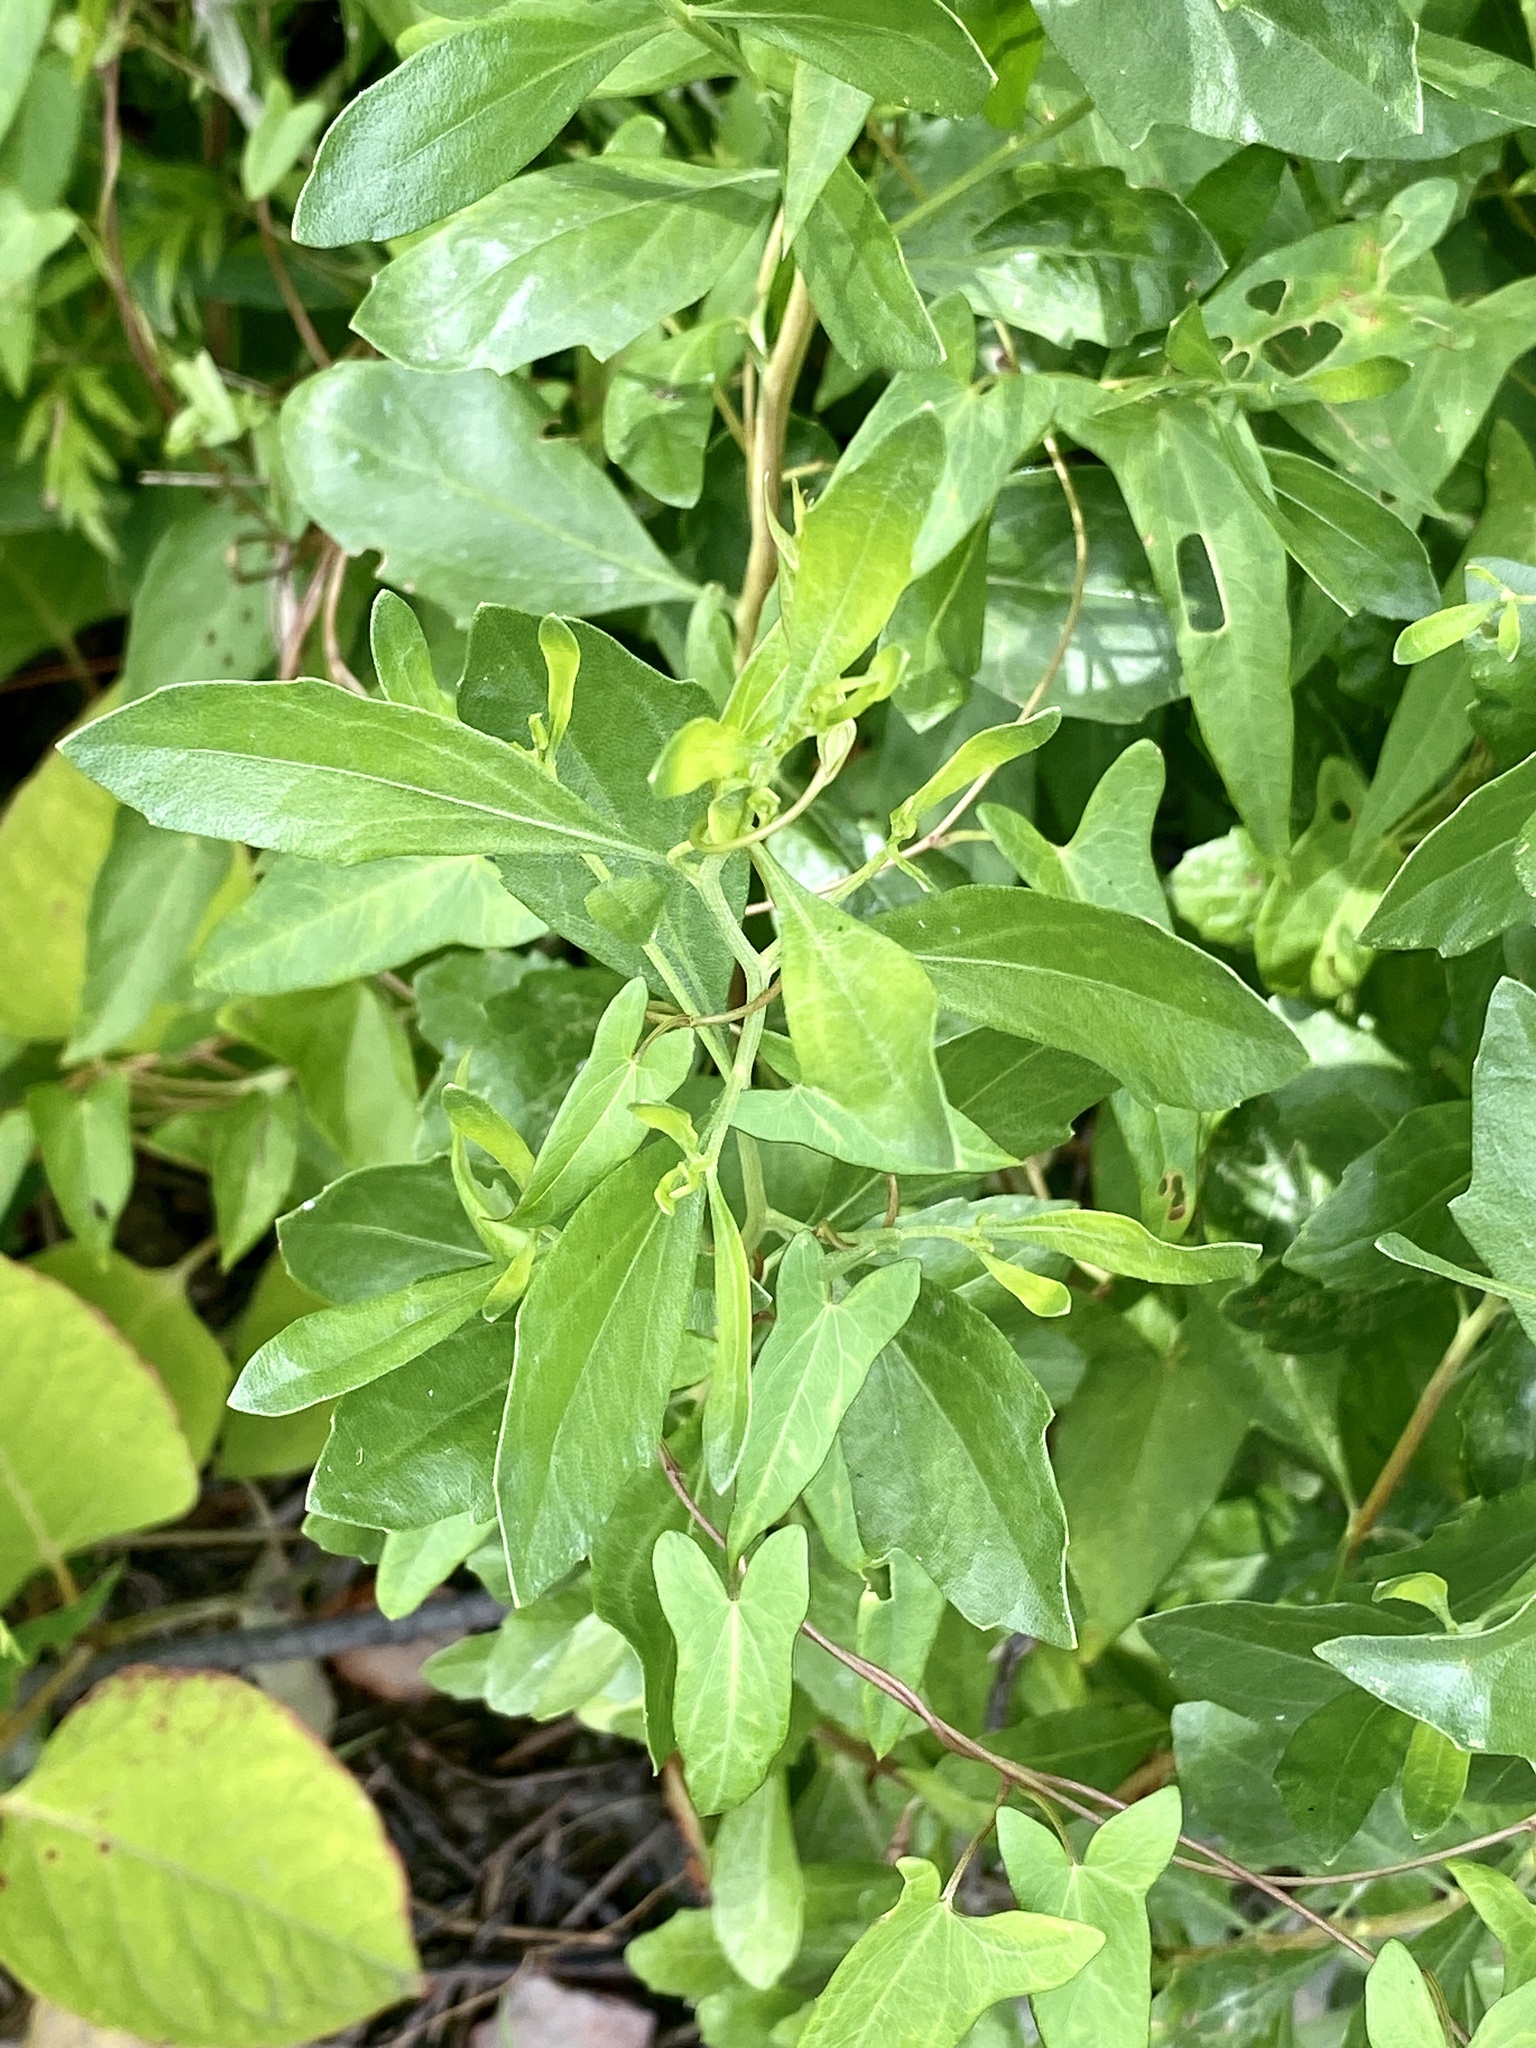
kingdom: Plantae
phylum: Tracheophyta
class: Magnoliopsida
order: Asterales
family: Asteraceae
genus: Baccharis
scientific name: Baccharis halimifolia
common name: Eastern baccharis
